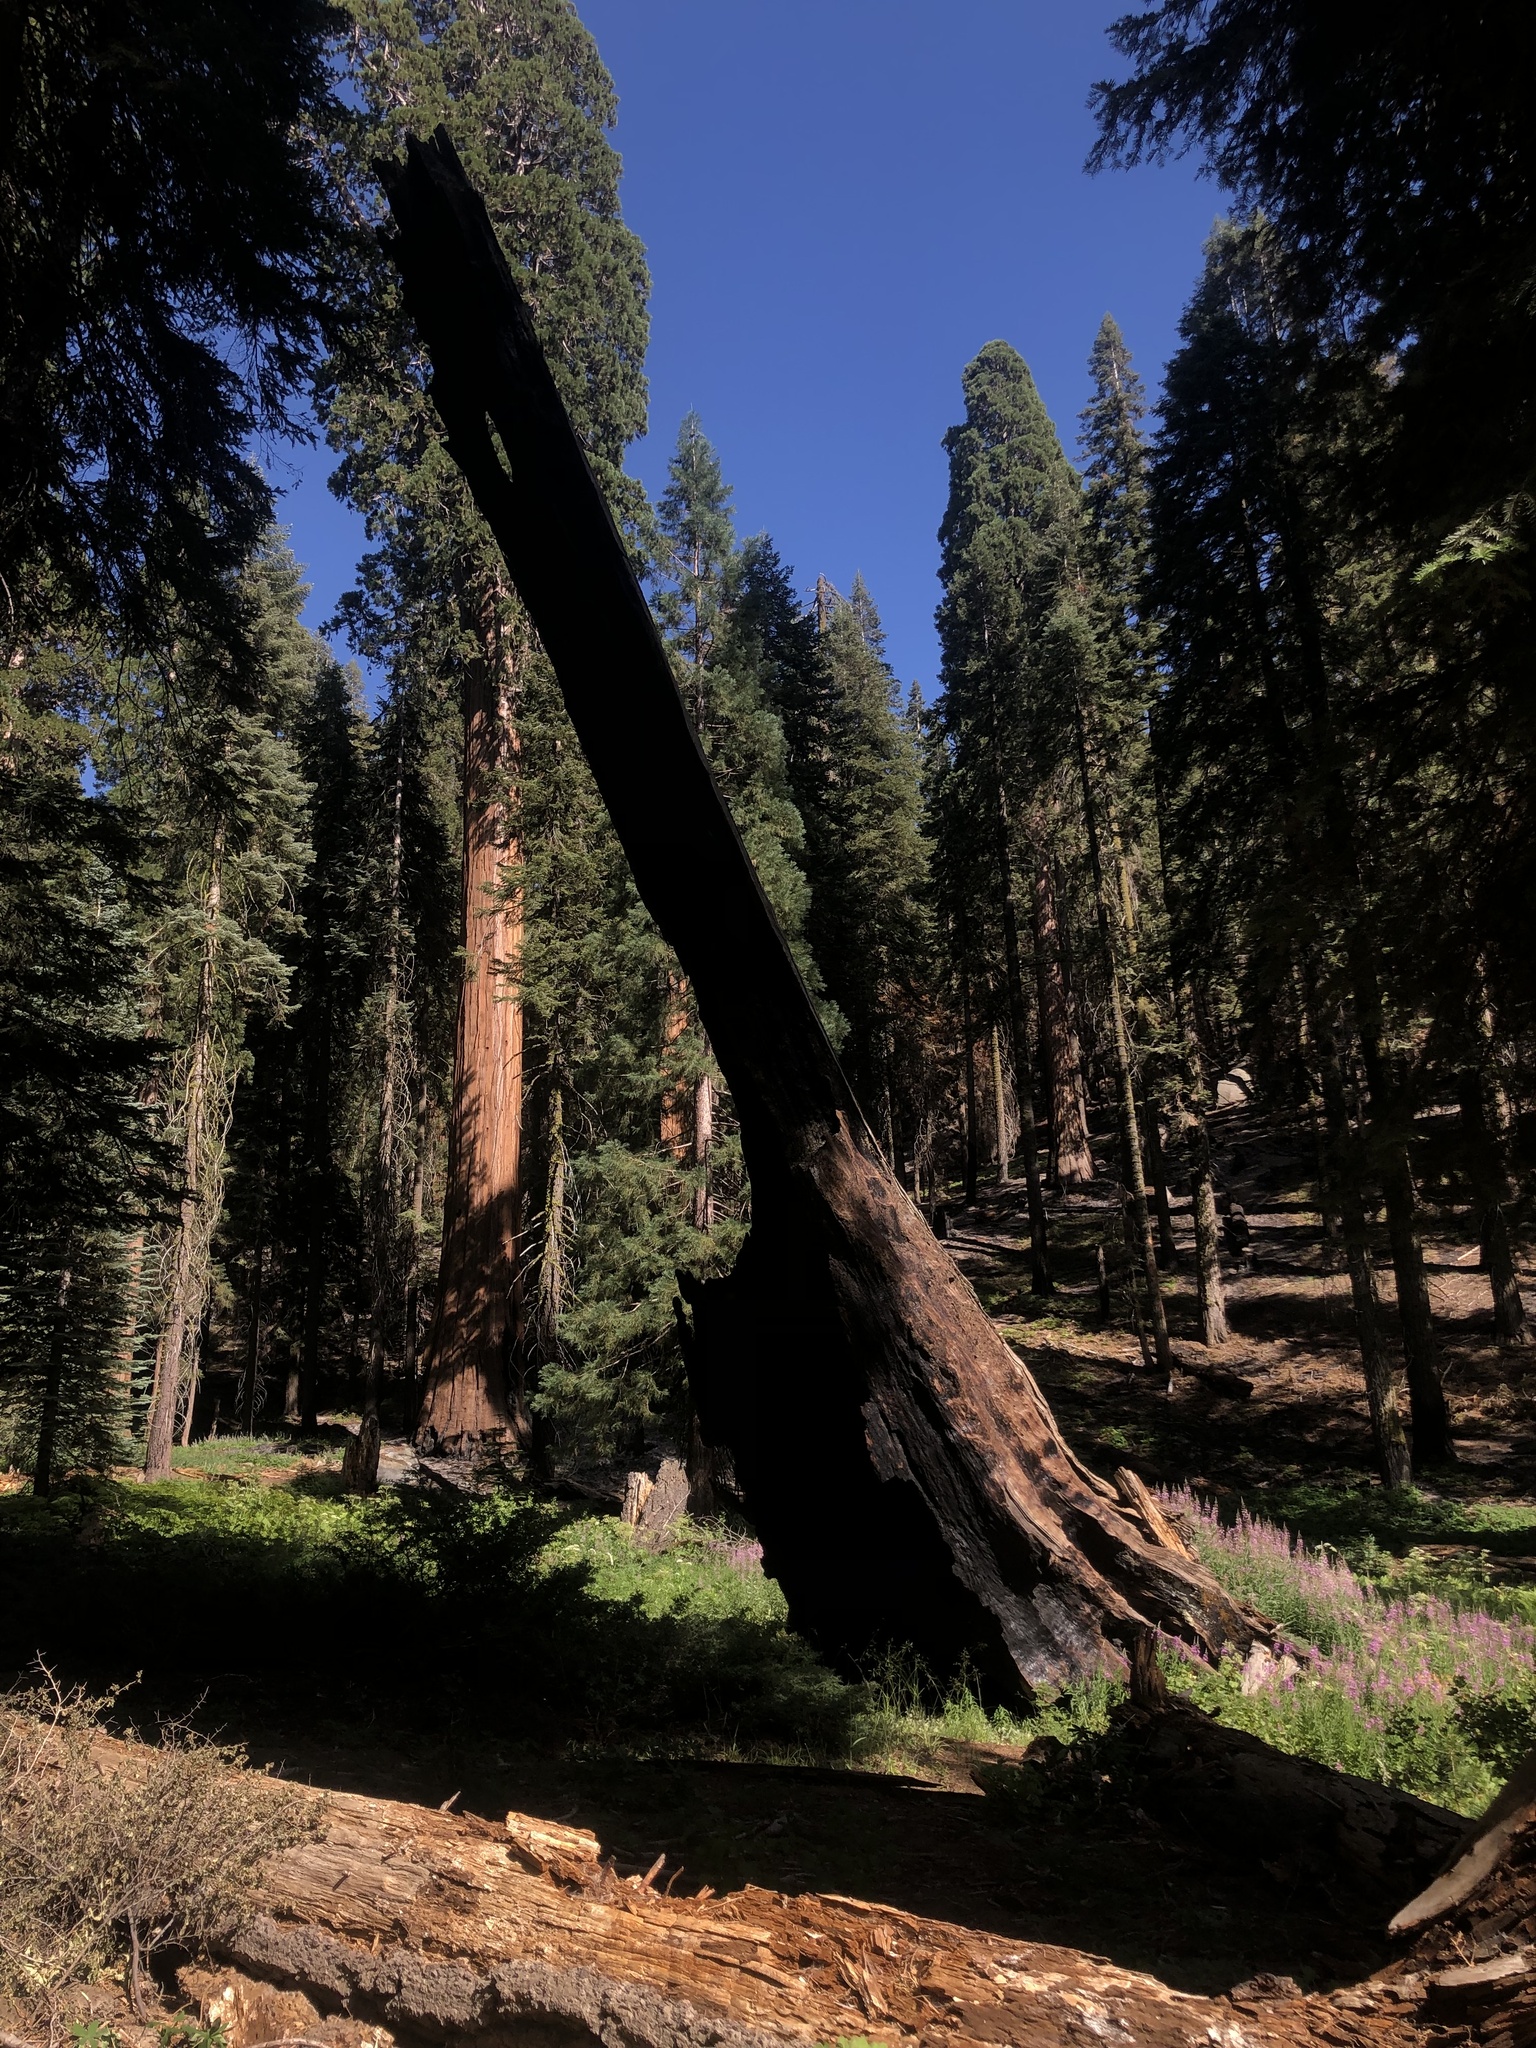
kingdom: Plantae
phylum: Tracheophyta
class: Pinopsida
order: Pinales
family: Cupressaceae
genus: Sequoiadendron
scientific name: Sequoiadendron giganteum
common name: Wellingtonia
